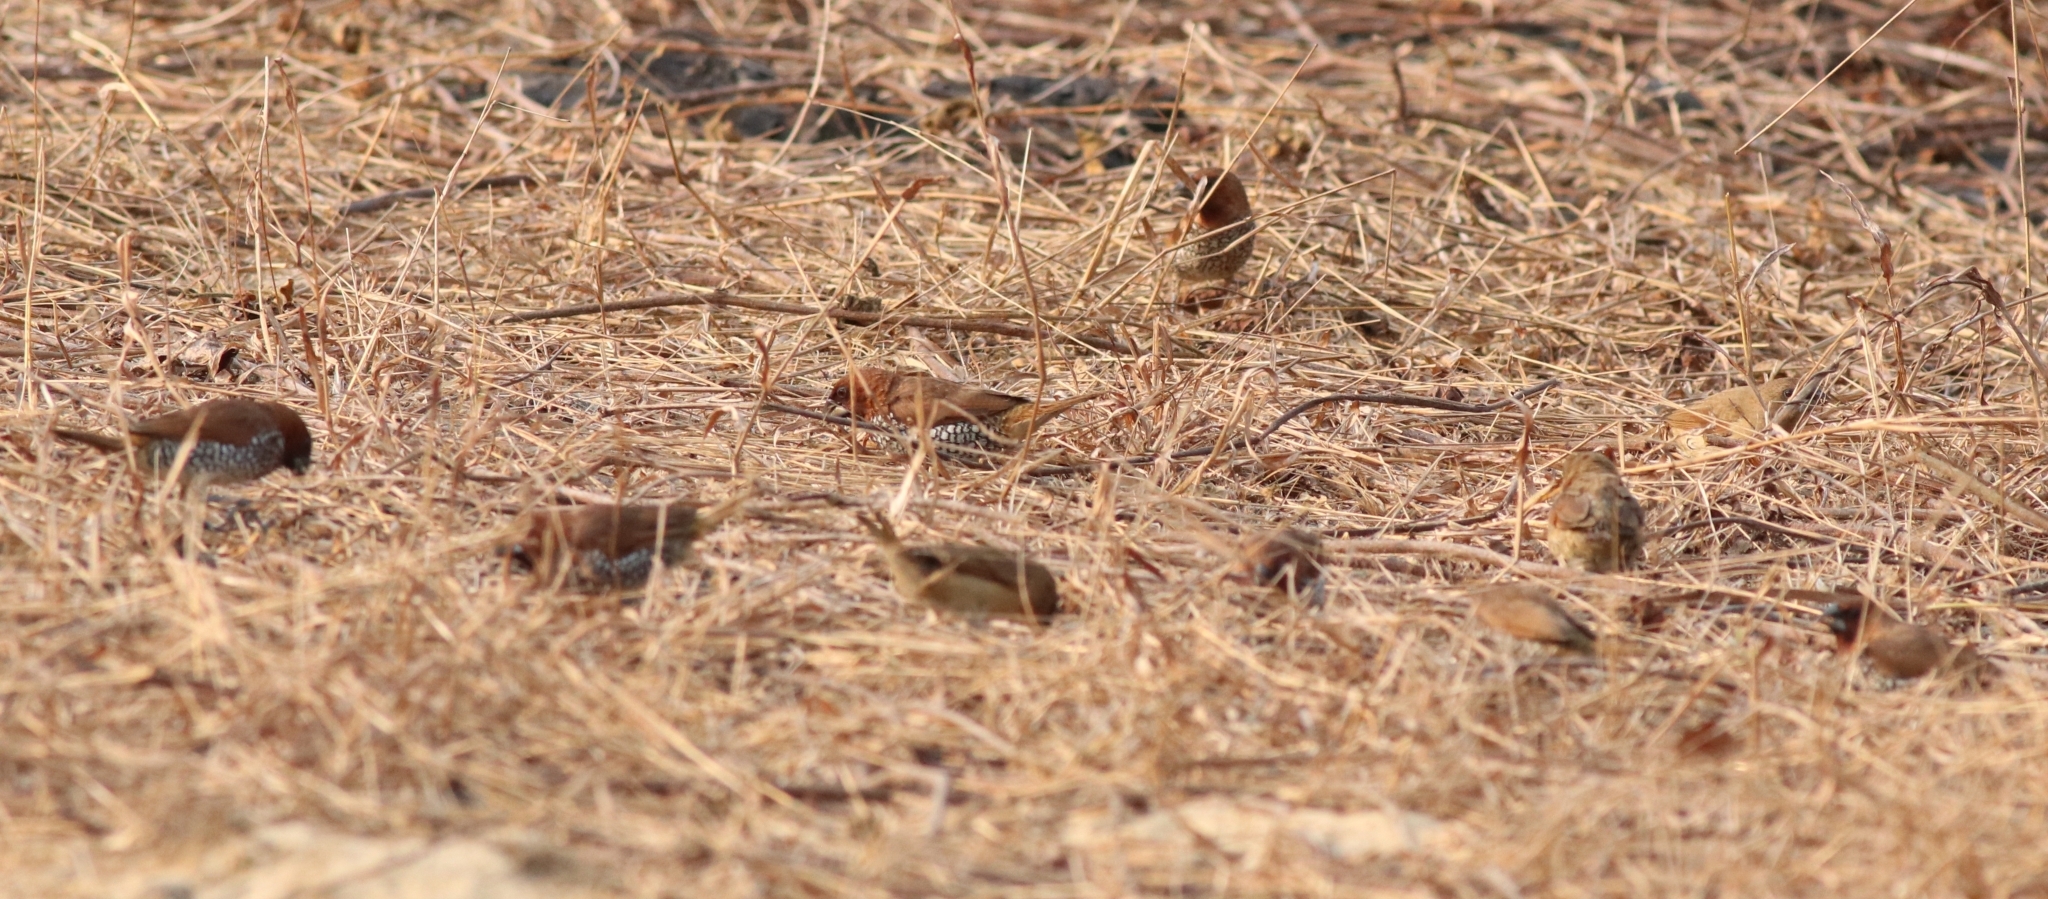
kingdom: Animalia
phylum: Chordata
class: Aves
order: Passeriformes
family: Estrildidae
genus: Lonchura
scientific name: Lonchura punctulata
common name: Scaly-breasted munia
